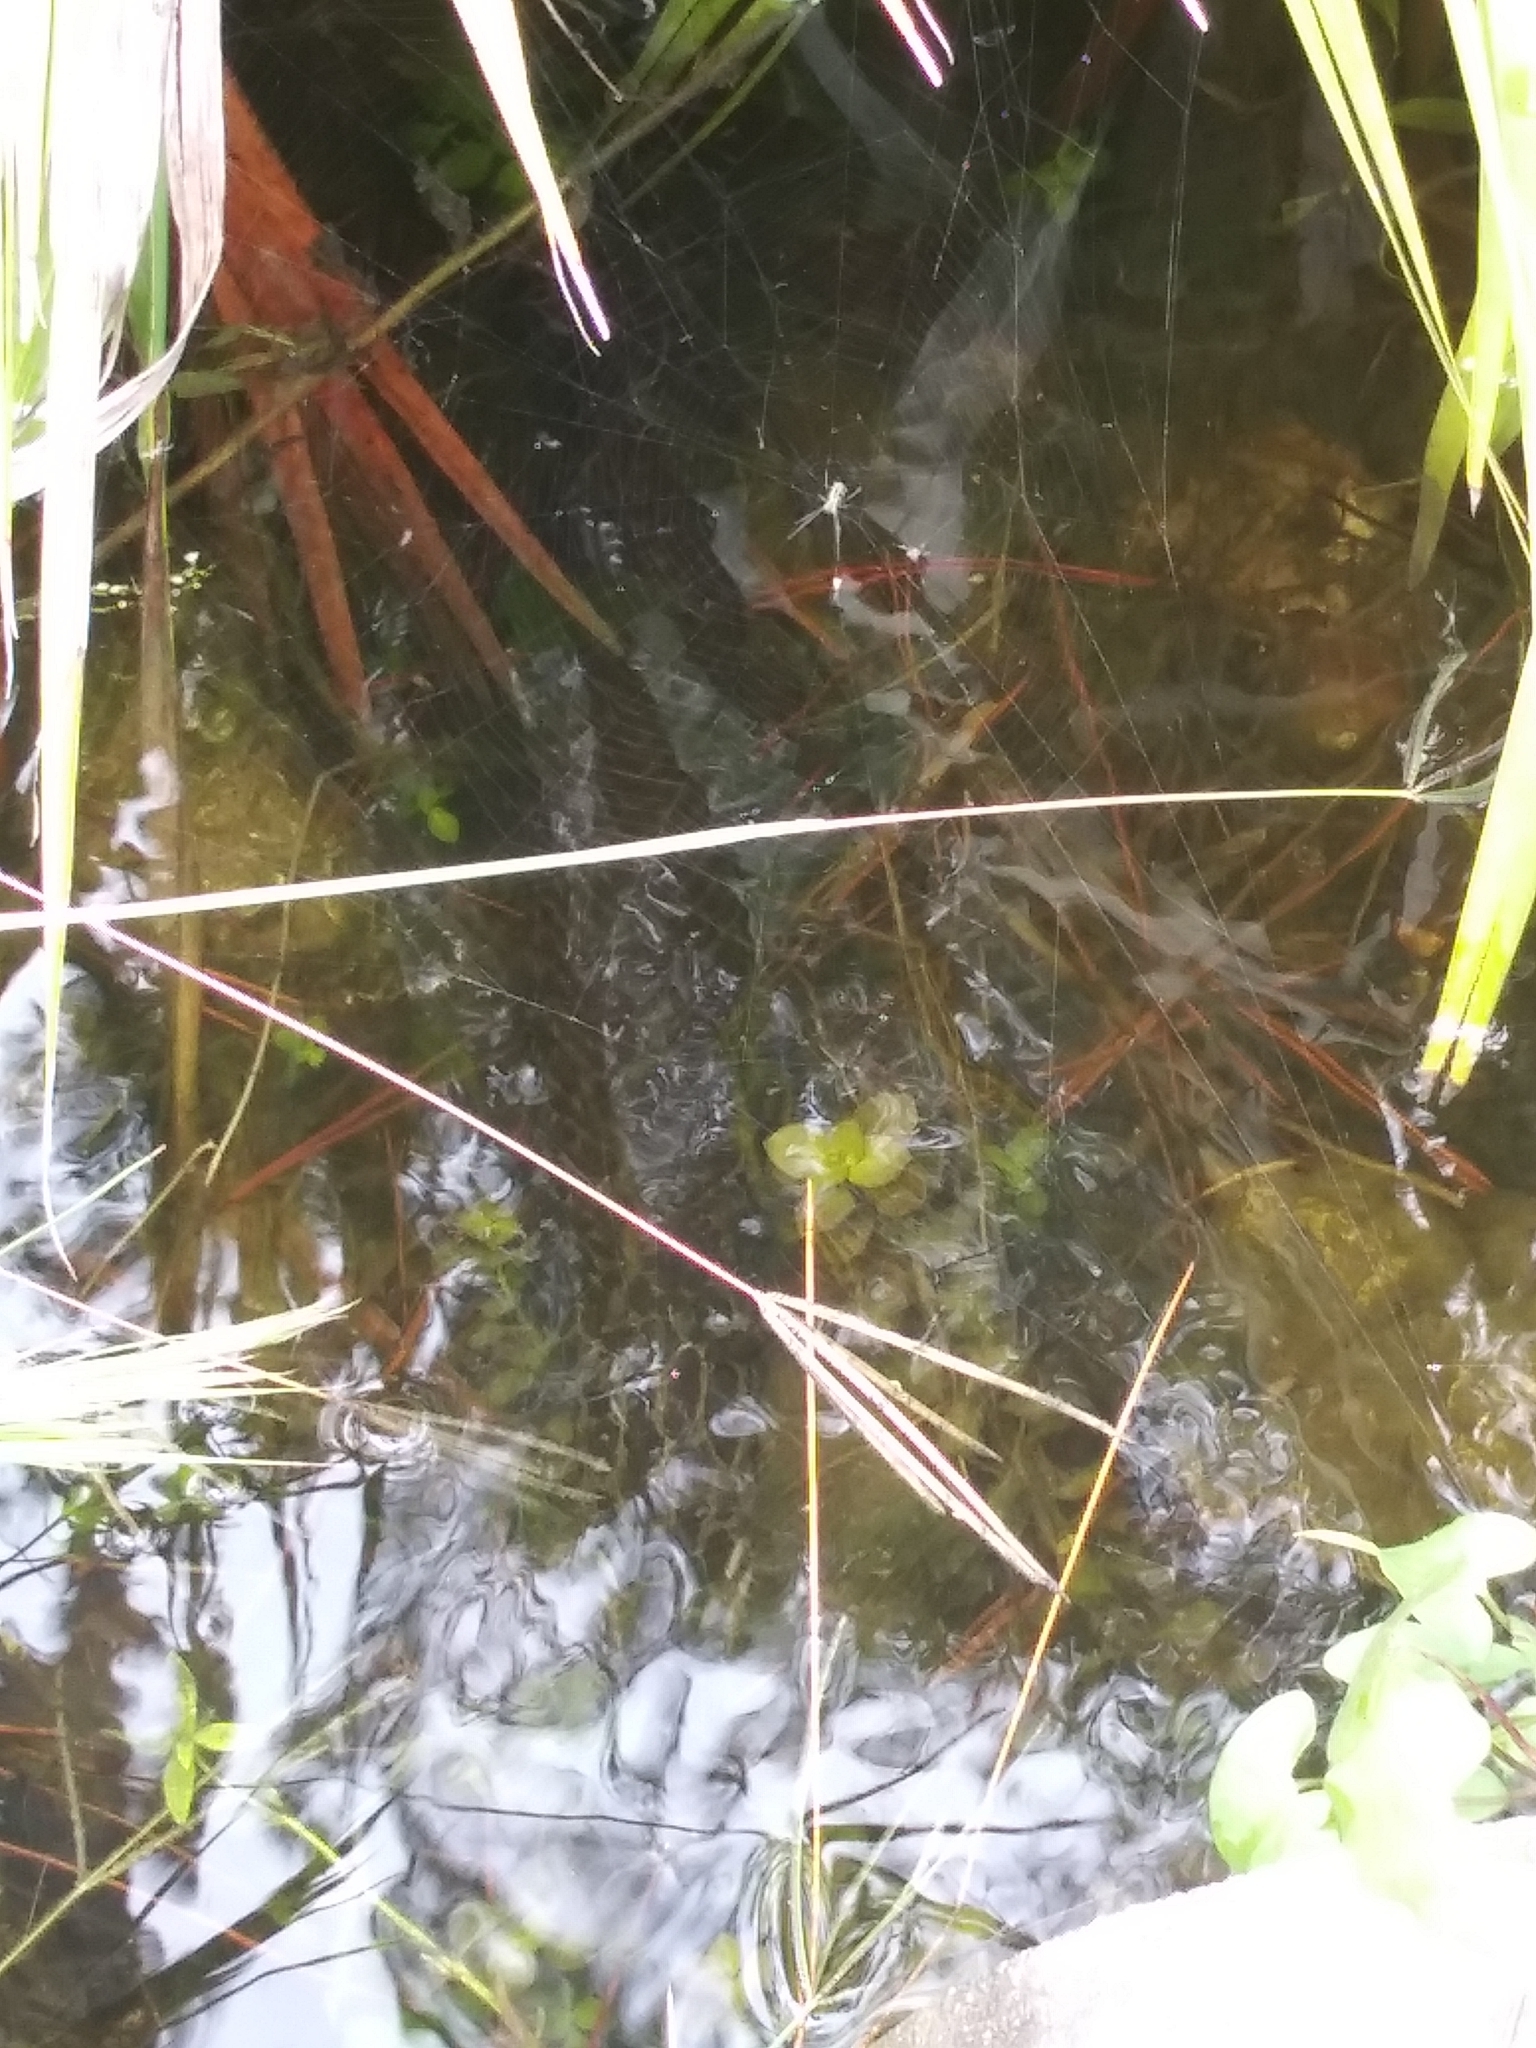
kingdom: Animalia
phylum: Chordata
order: Lepisosteiformes
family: Lepisosteidae
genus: Lepisosteus
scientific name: Lepisosteus platyrhincus
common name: Florida gar
